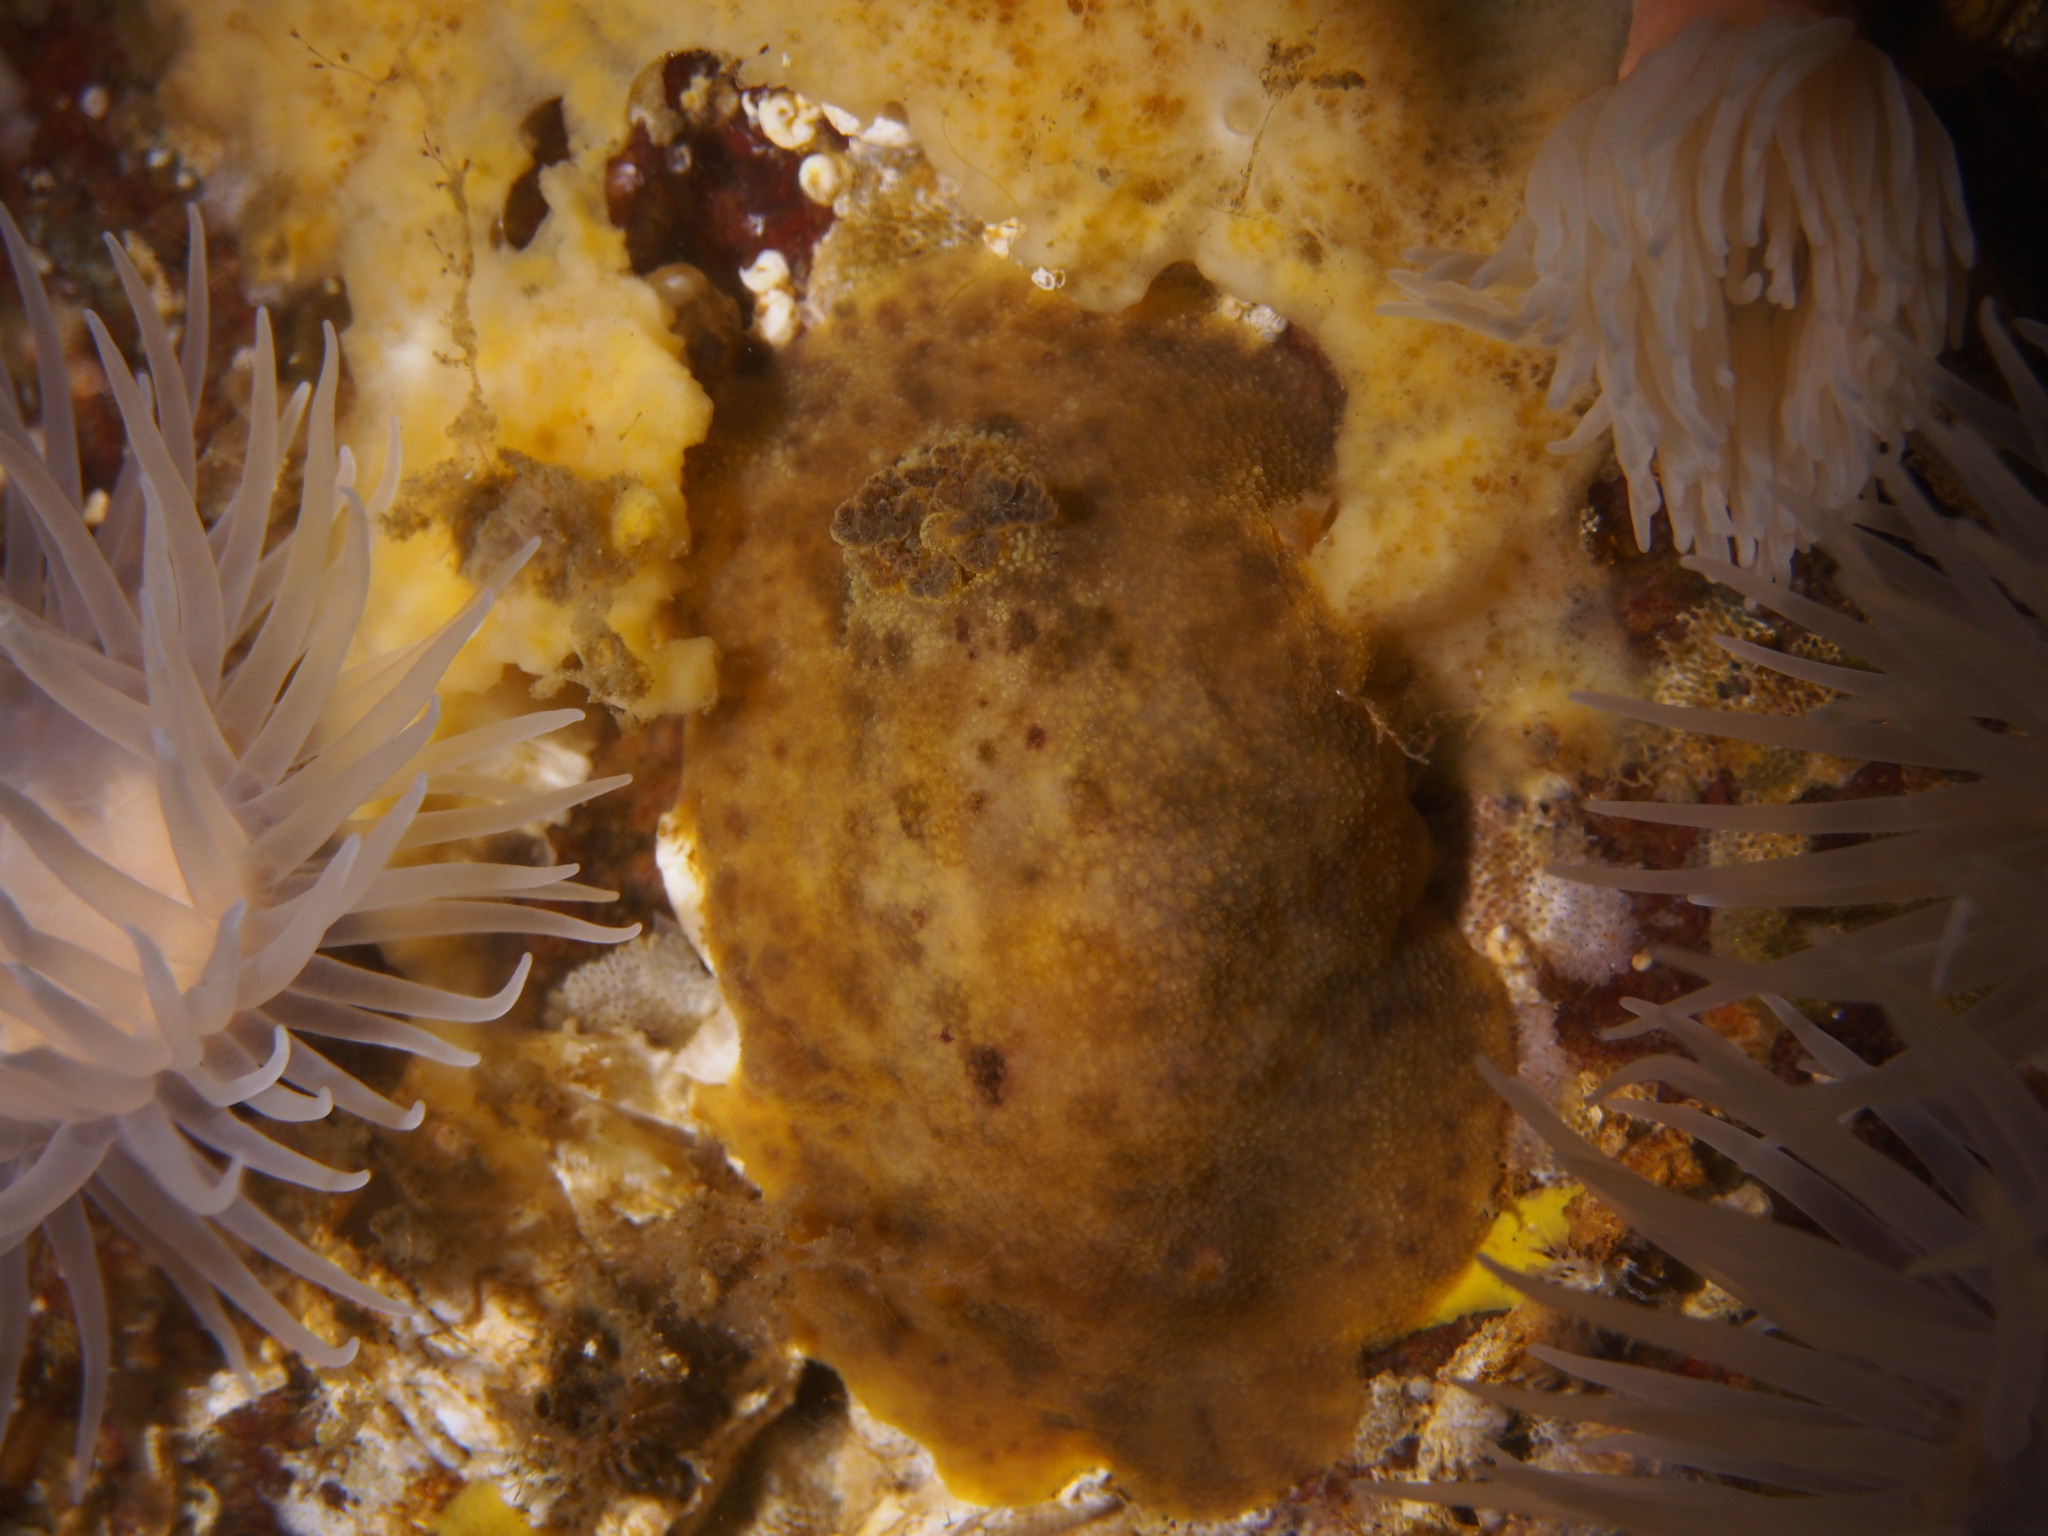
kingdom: Animalia
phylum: Mollusca
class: Gastropoda
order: Nudibranchia
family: Dorididae
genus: Doris
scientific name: Doris pseudoargus
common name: Sea lemon
